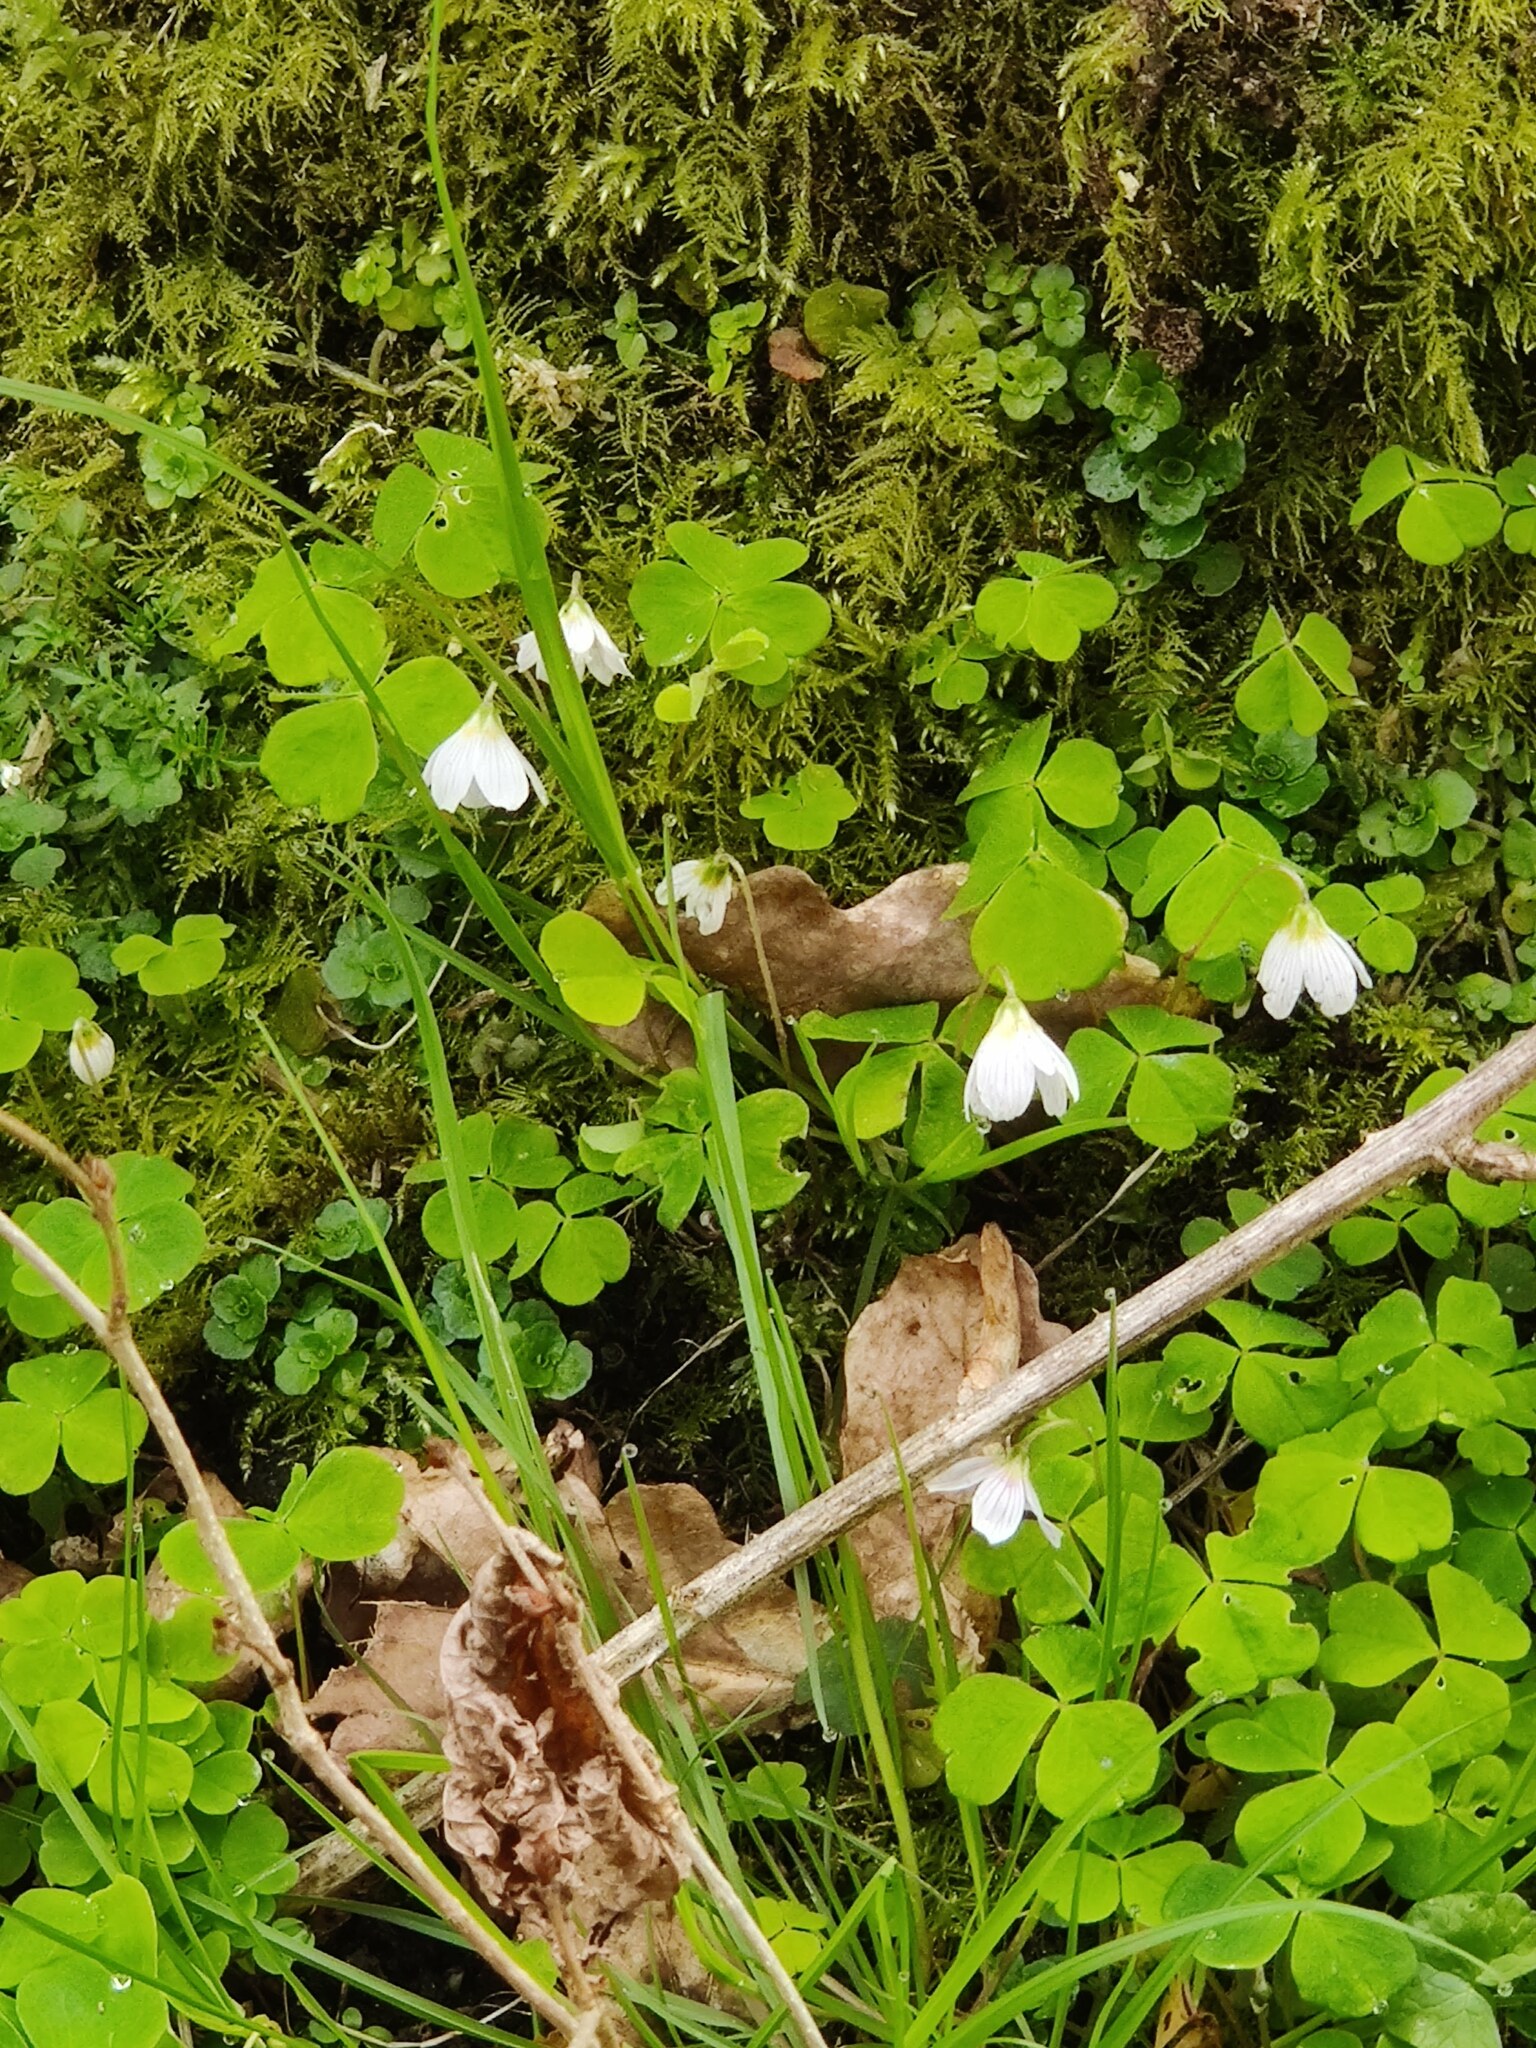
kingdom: Plantae
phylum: Tracheophyta
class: Magnoliopsida
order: Oxalidales
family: Oxalidaceae
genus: Oxalis
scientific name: Oxalis acetosella
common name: Wood-sorrel
